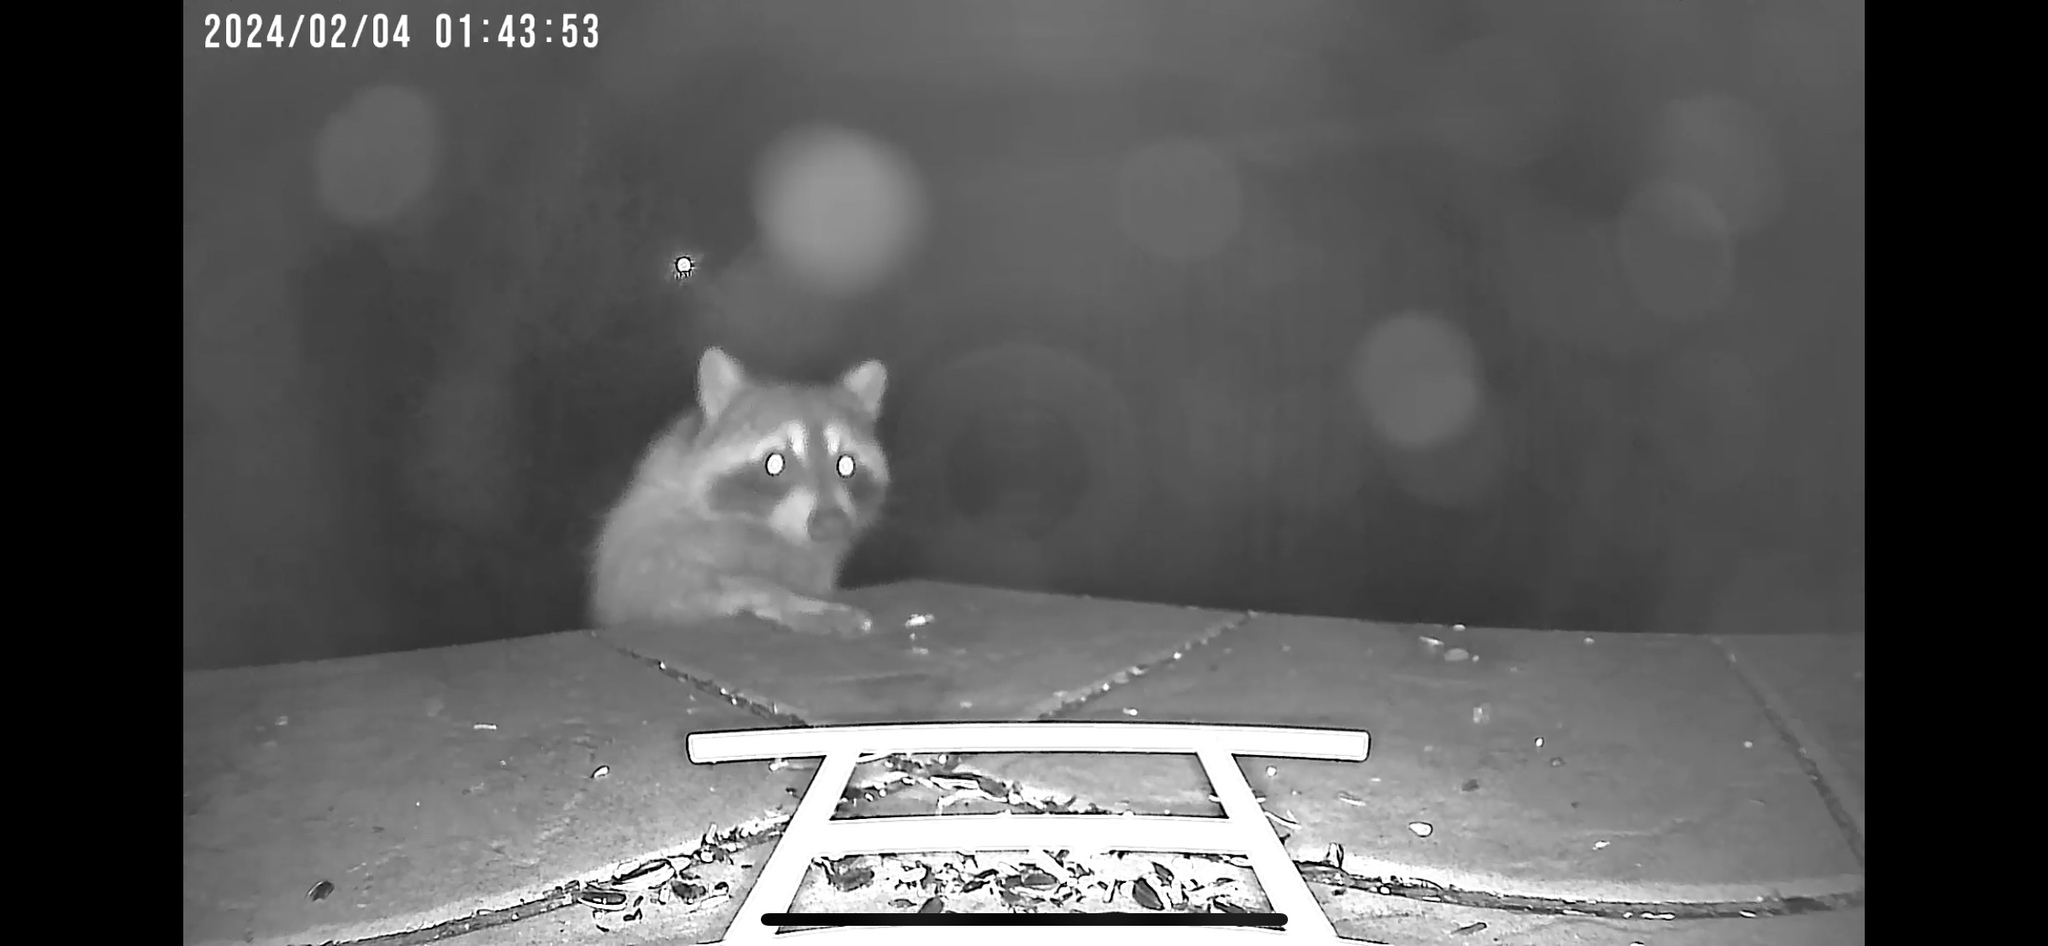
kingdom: Animalia
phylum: Chordata
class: Mammalia
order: Carnivora
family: Procyonidae
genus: Procyon
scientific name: Procyon lotor
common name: Raccoon
